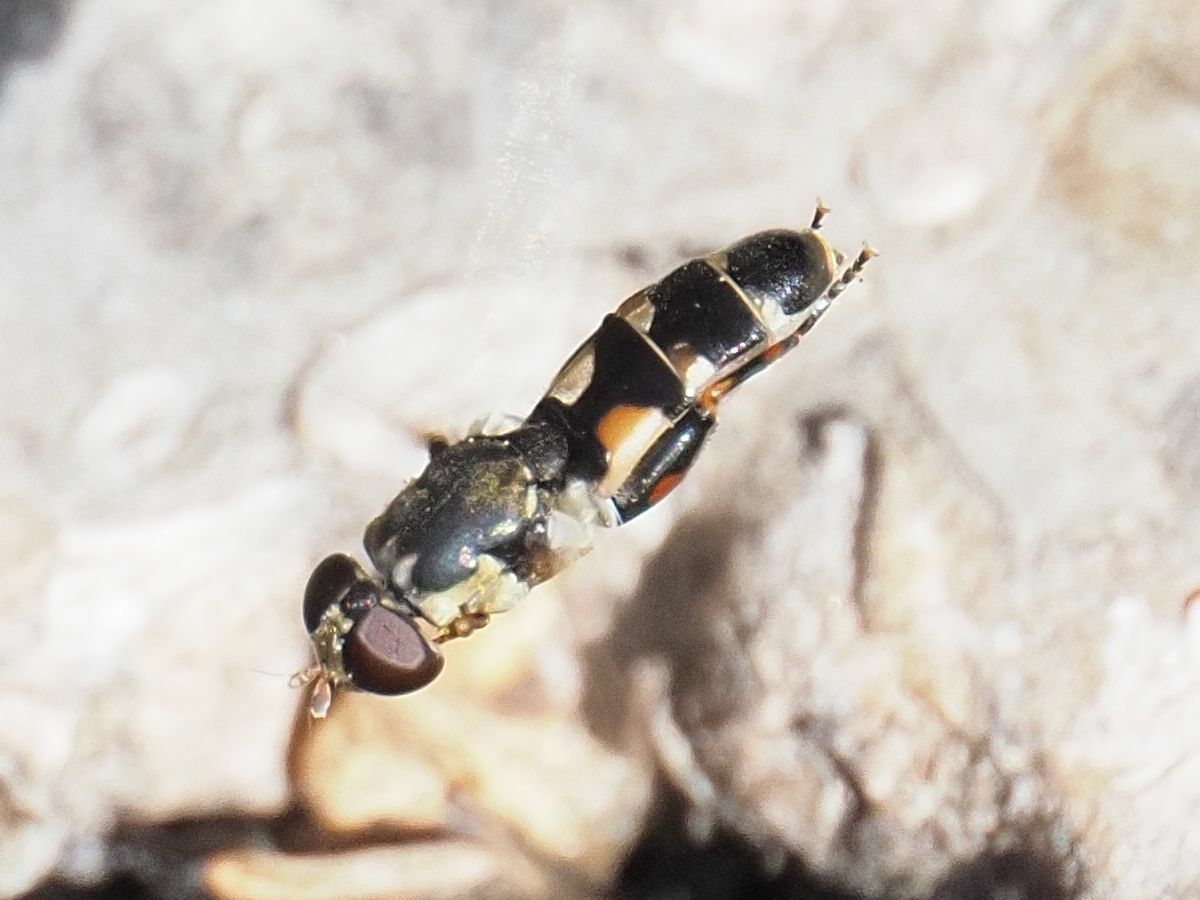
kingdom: Animalia
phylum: Arthropoda
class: Insecta
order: Diptera
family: Syrphidae
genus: Syritta
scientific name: Syritta pipiens
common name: Hover fly
